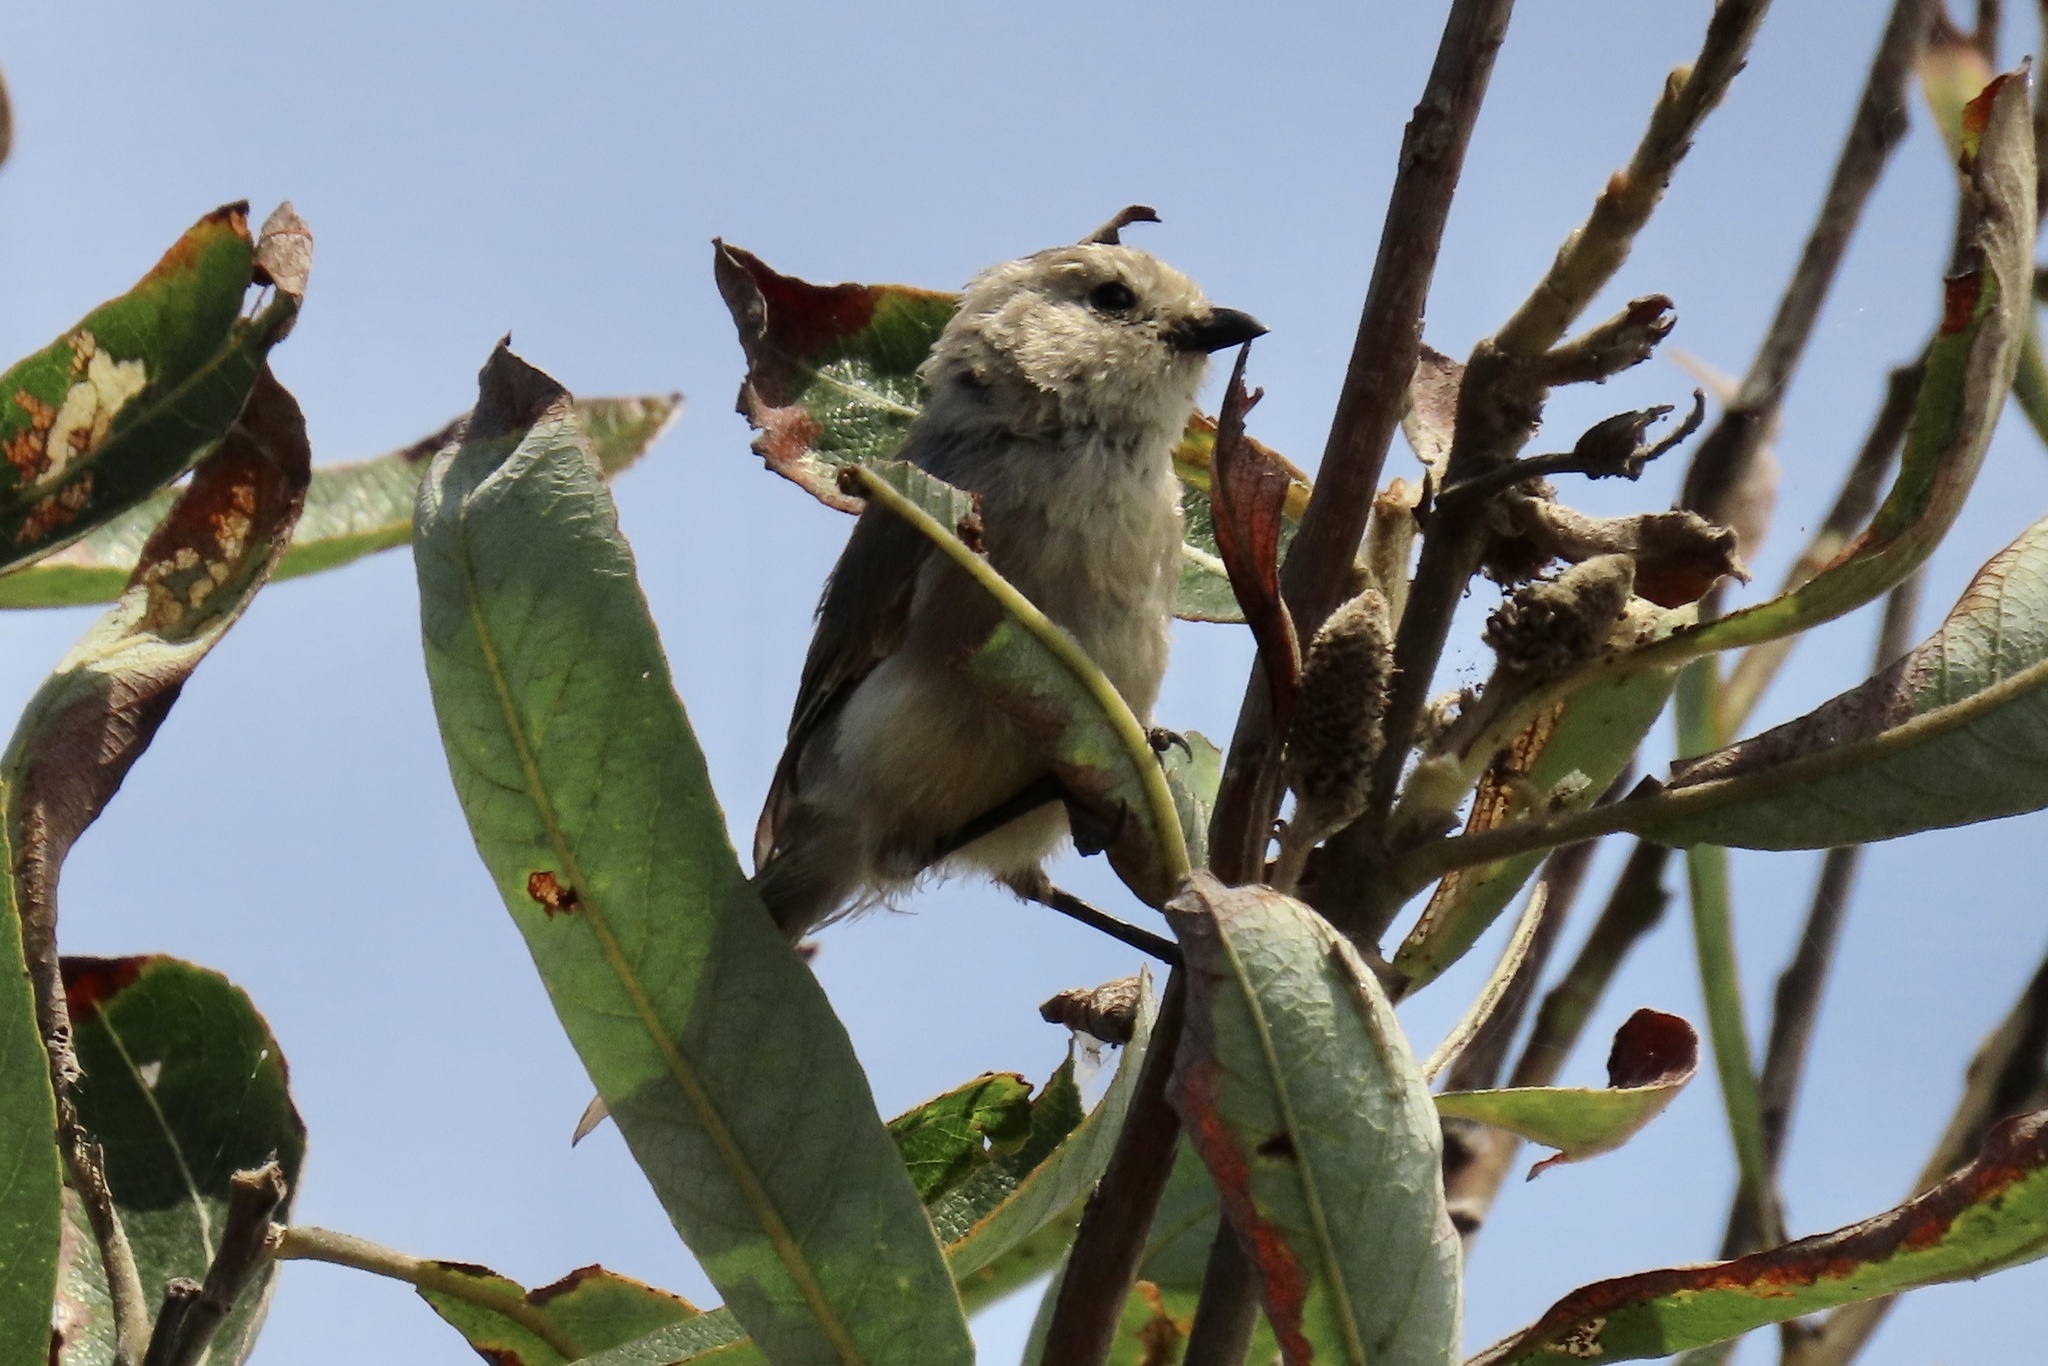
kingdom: Animalia
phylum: Chordata
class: Aves
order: Passeriformes
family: Aegithalidae
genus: Psaltriparus
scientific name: Psaltriparus minimus
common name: American bushtit
